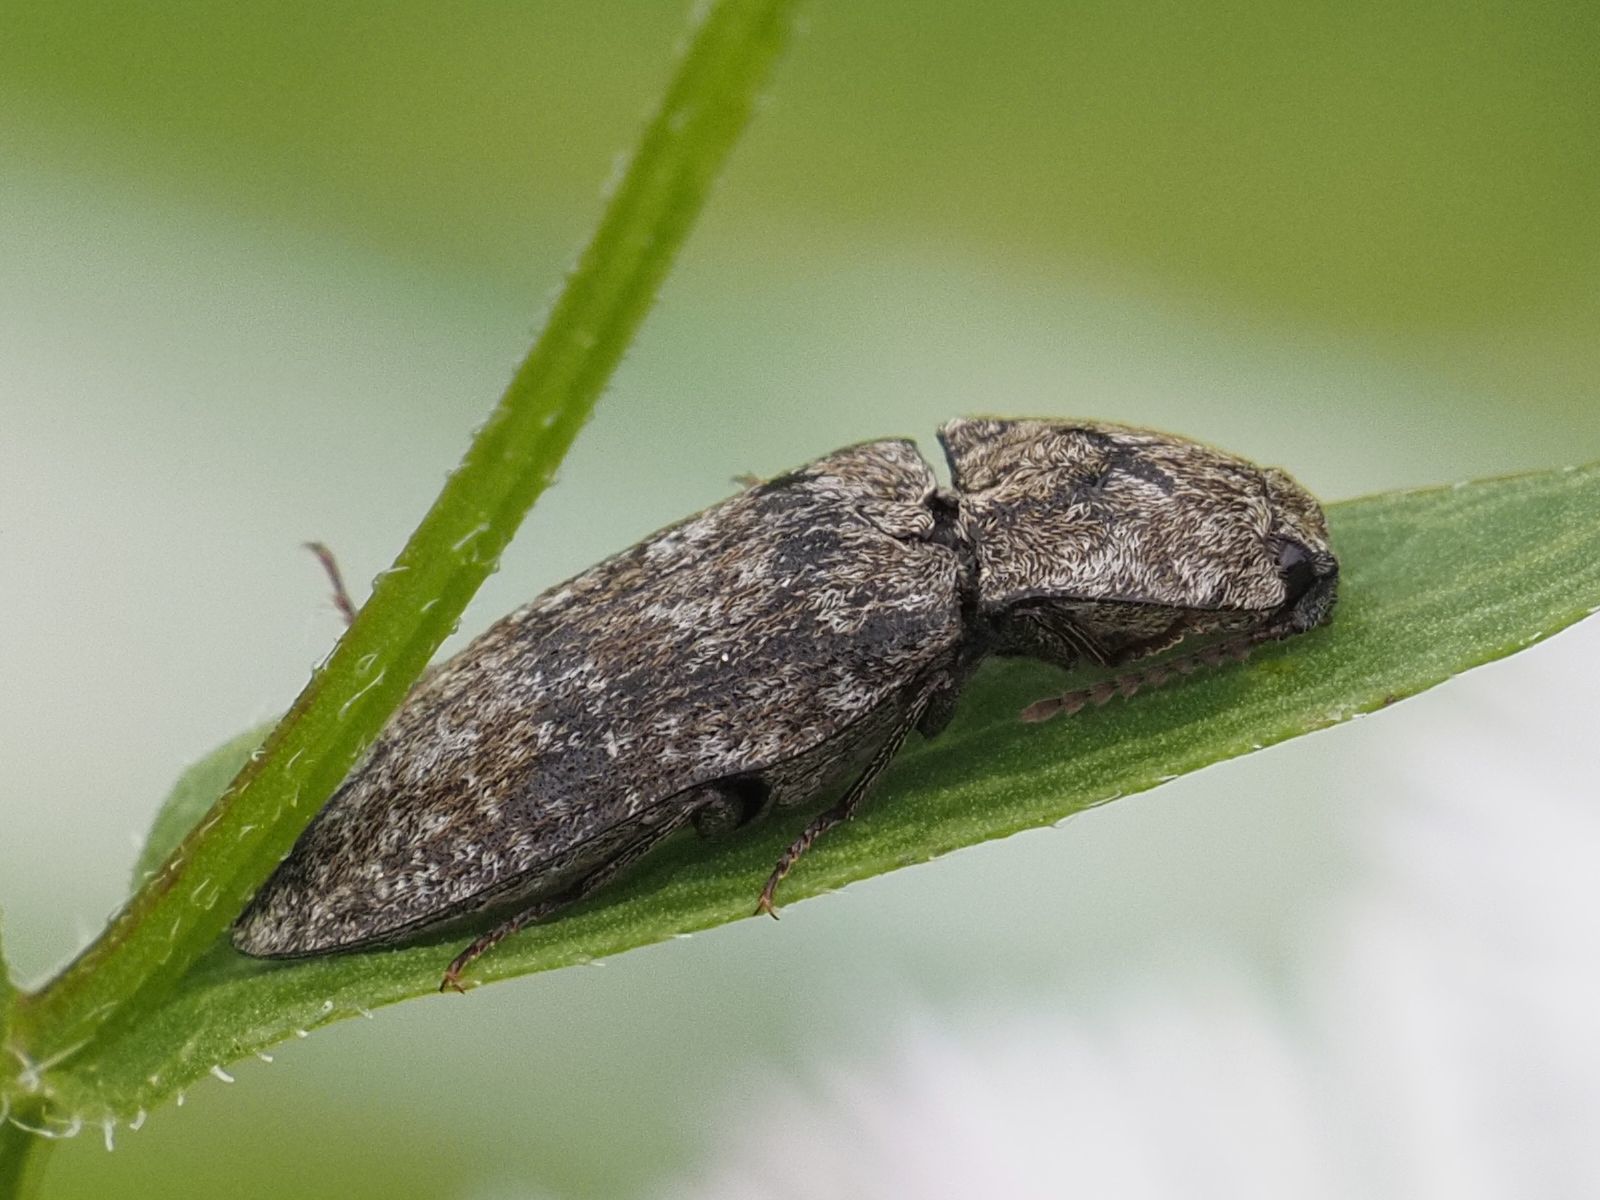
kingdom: Animalia
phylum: Arthropoda
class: Insecta
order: Coleoptera
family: Elateridae
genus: Agrypnus
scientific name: Agrypnus murinus
